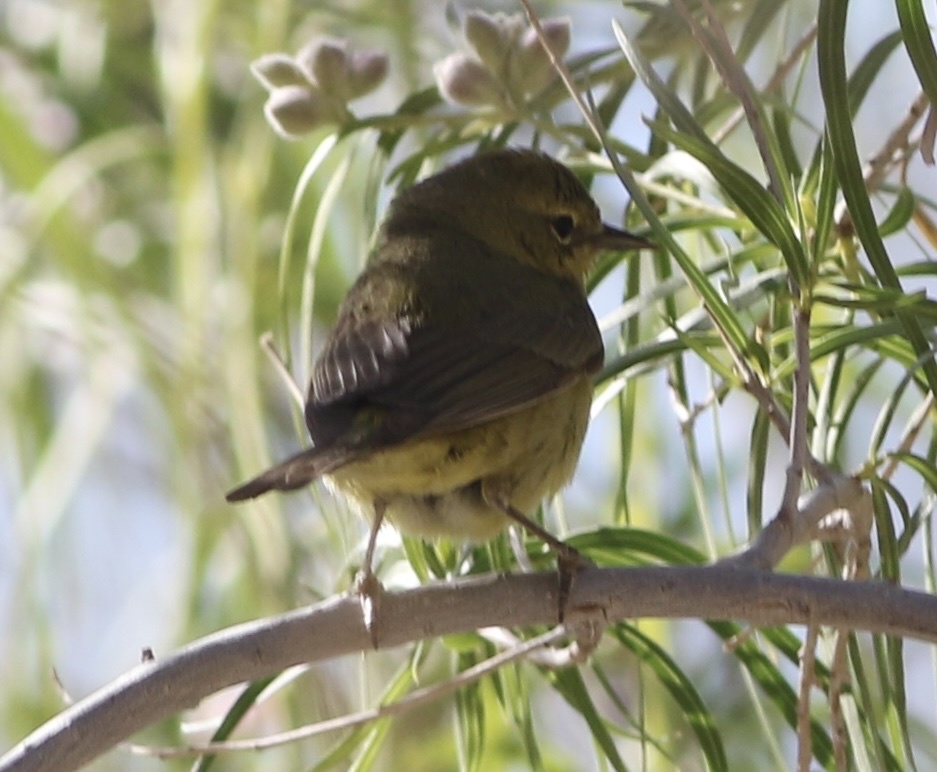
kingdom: Animalia
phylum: Chordata
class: Aves
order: Passeriformes
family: Parulidae
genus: Leiothlypis
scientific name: Leiothlypis celata
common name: Orange-crowned warbler
